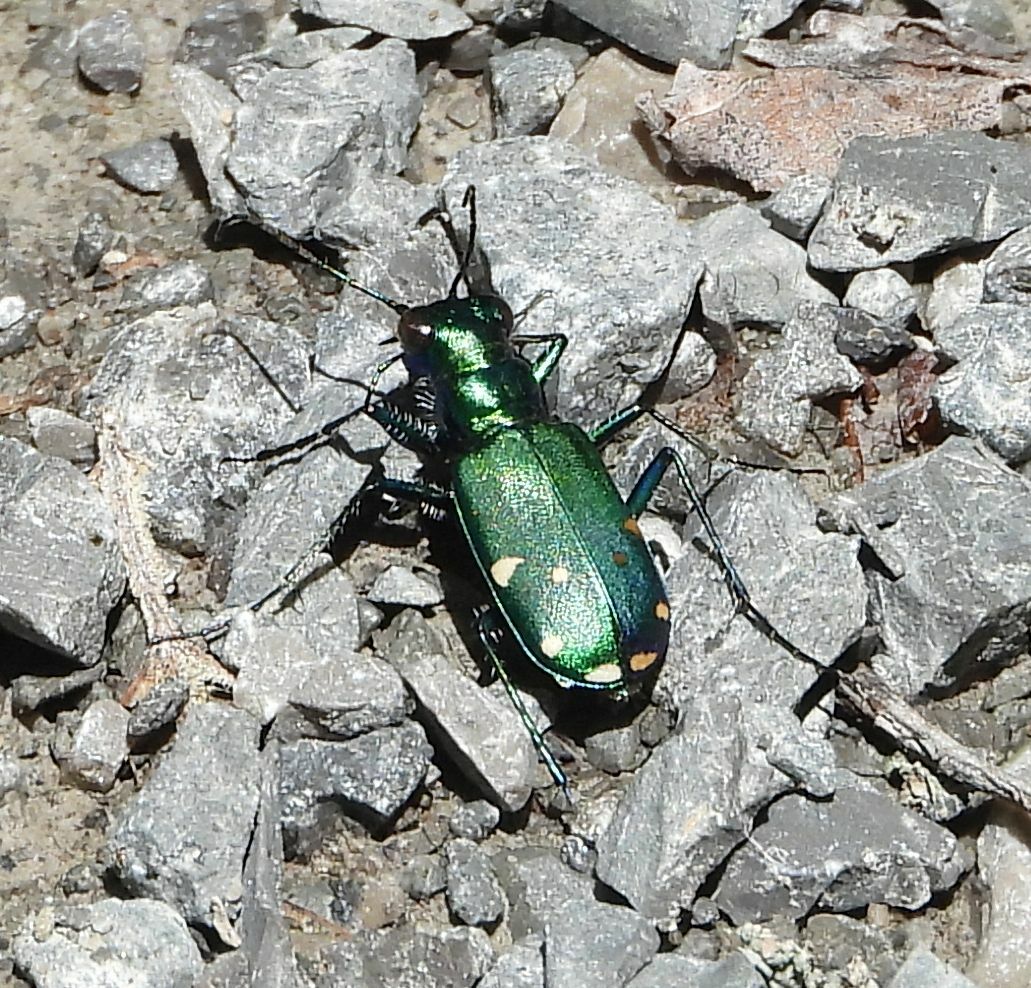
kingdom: Animalia
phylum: Arthropoda
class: Insecta
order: Coleoptera
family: Carabidae
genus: Cicindela
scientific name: Cicindela sexguttata
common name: Six-spotted tiger beetle
